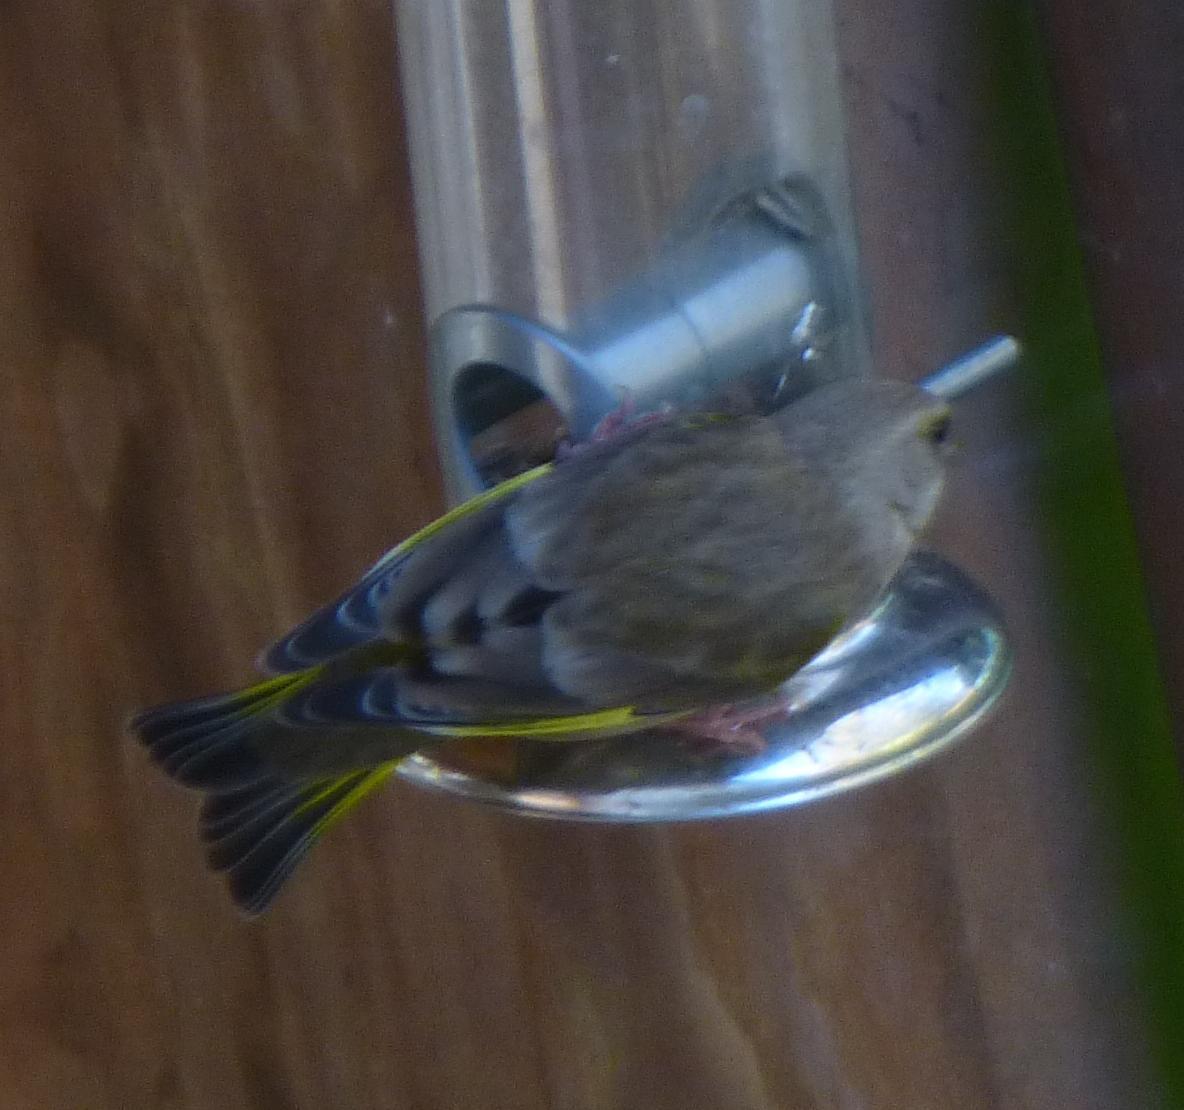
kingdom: Plantae
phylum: Tracheophyta
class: Liliopsida
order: Poales
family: Poaceae
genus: Chloris
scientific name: Chloris chloris
